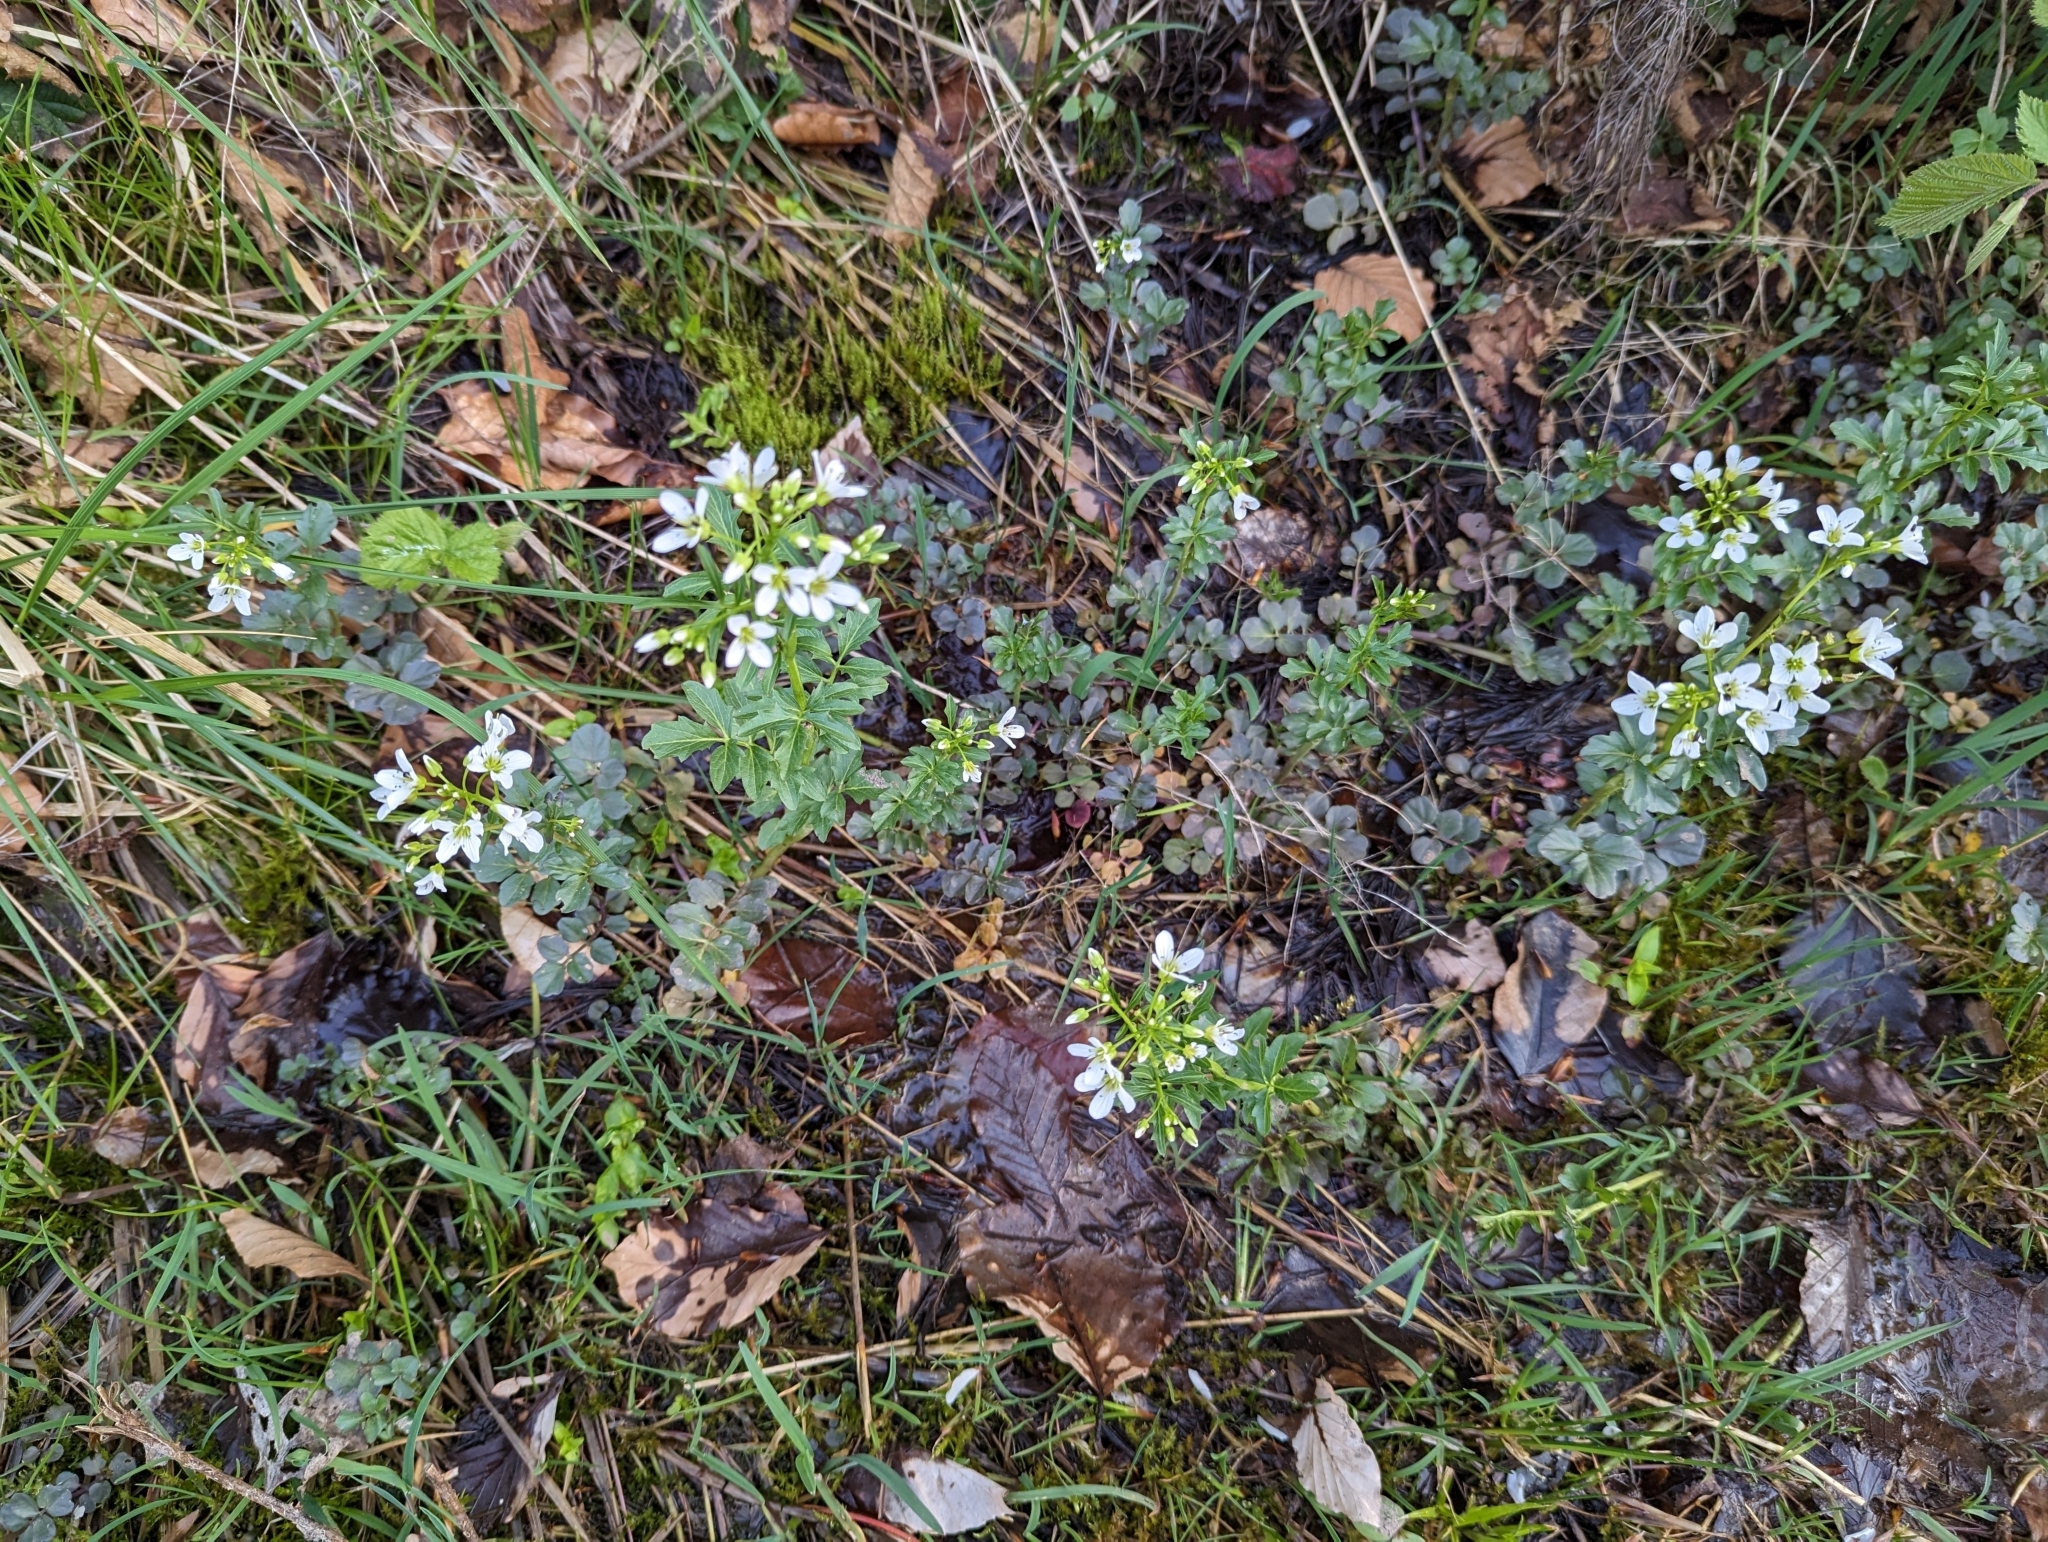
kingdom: Plantae
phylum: Tracheophyta
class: Magnoliopsida
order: Brassicales
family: Brassicaceae
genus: Cardamine
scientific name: Cardamine amara
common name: Large bitter-cress
